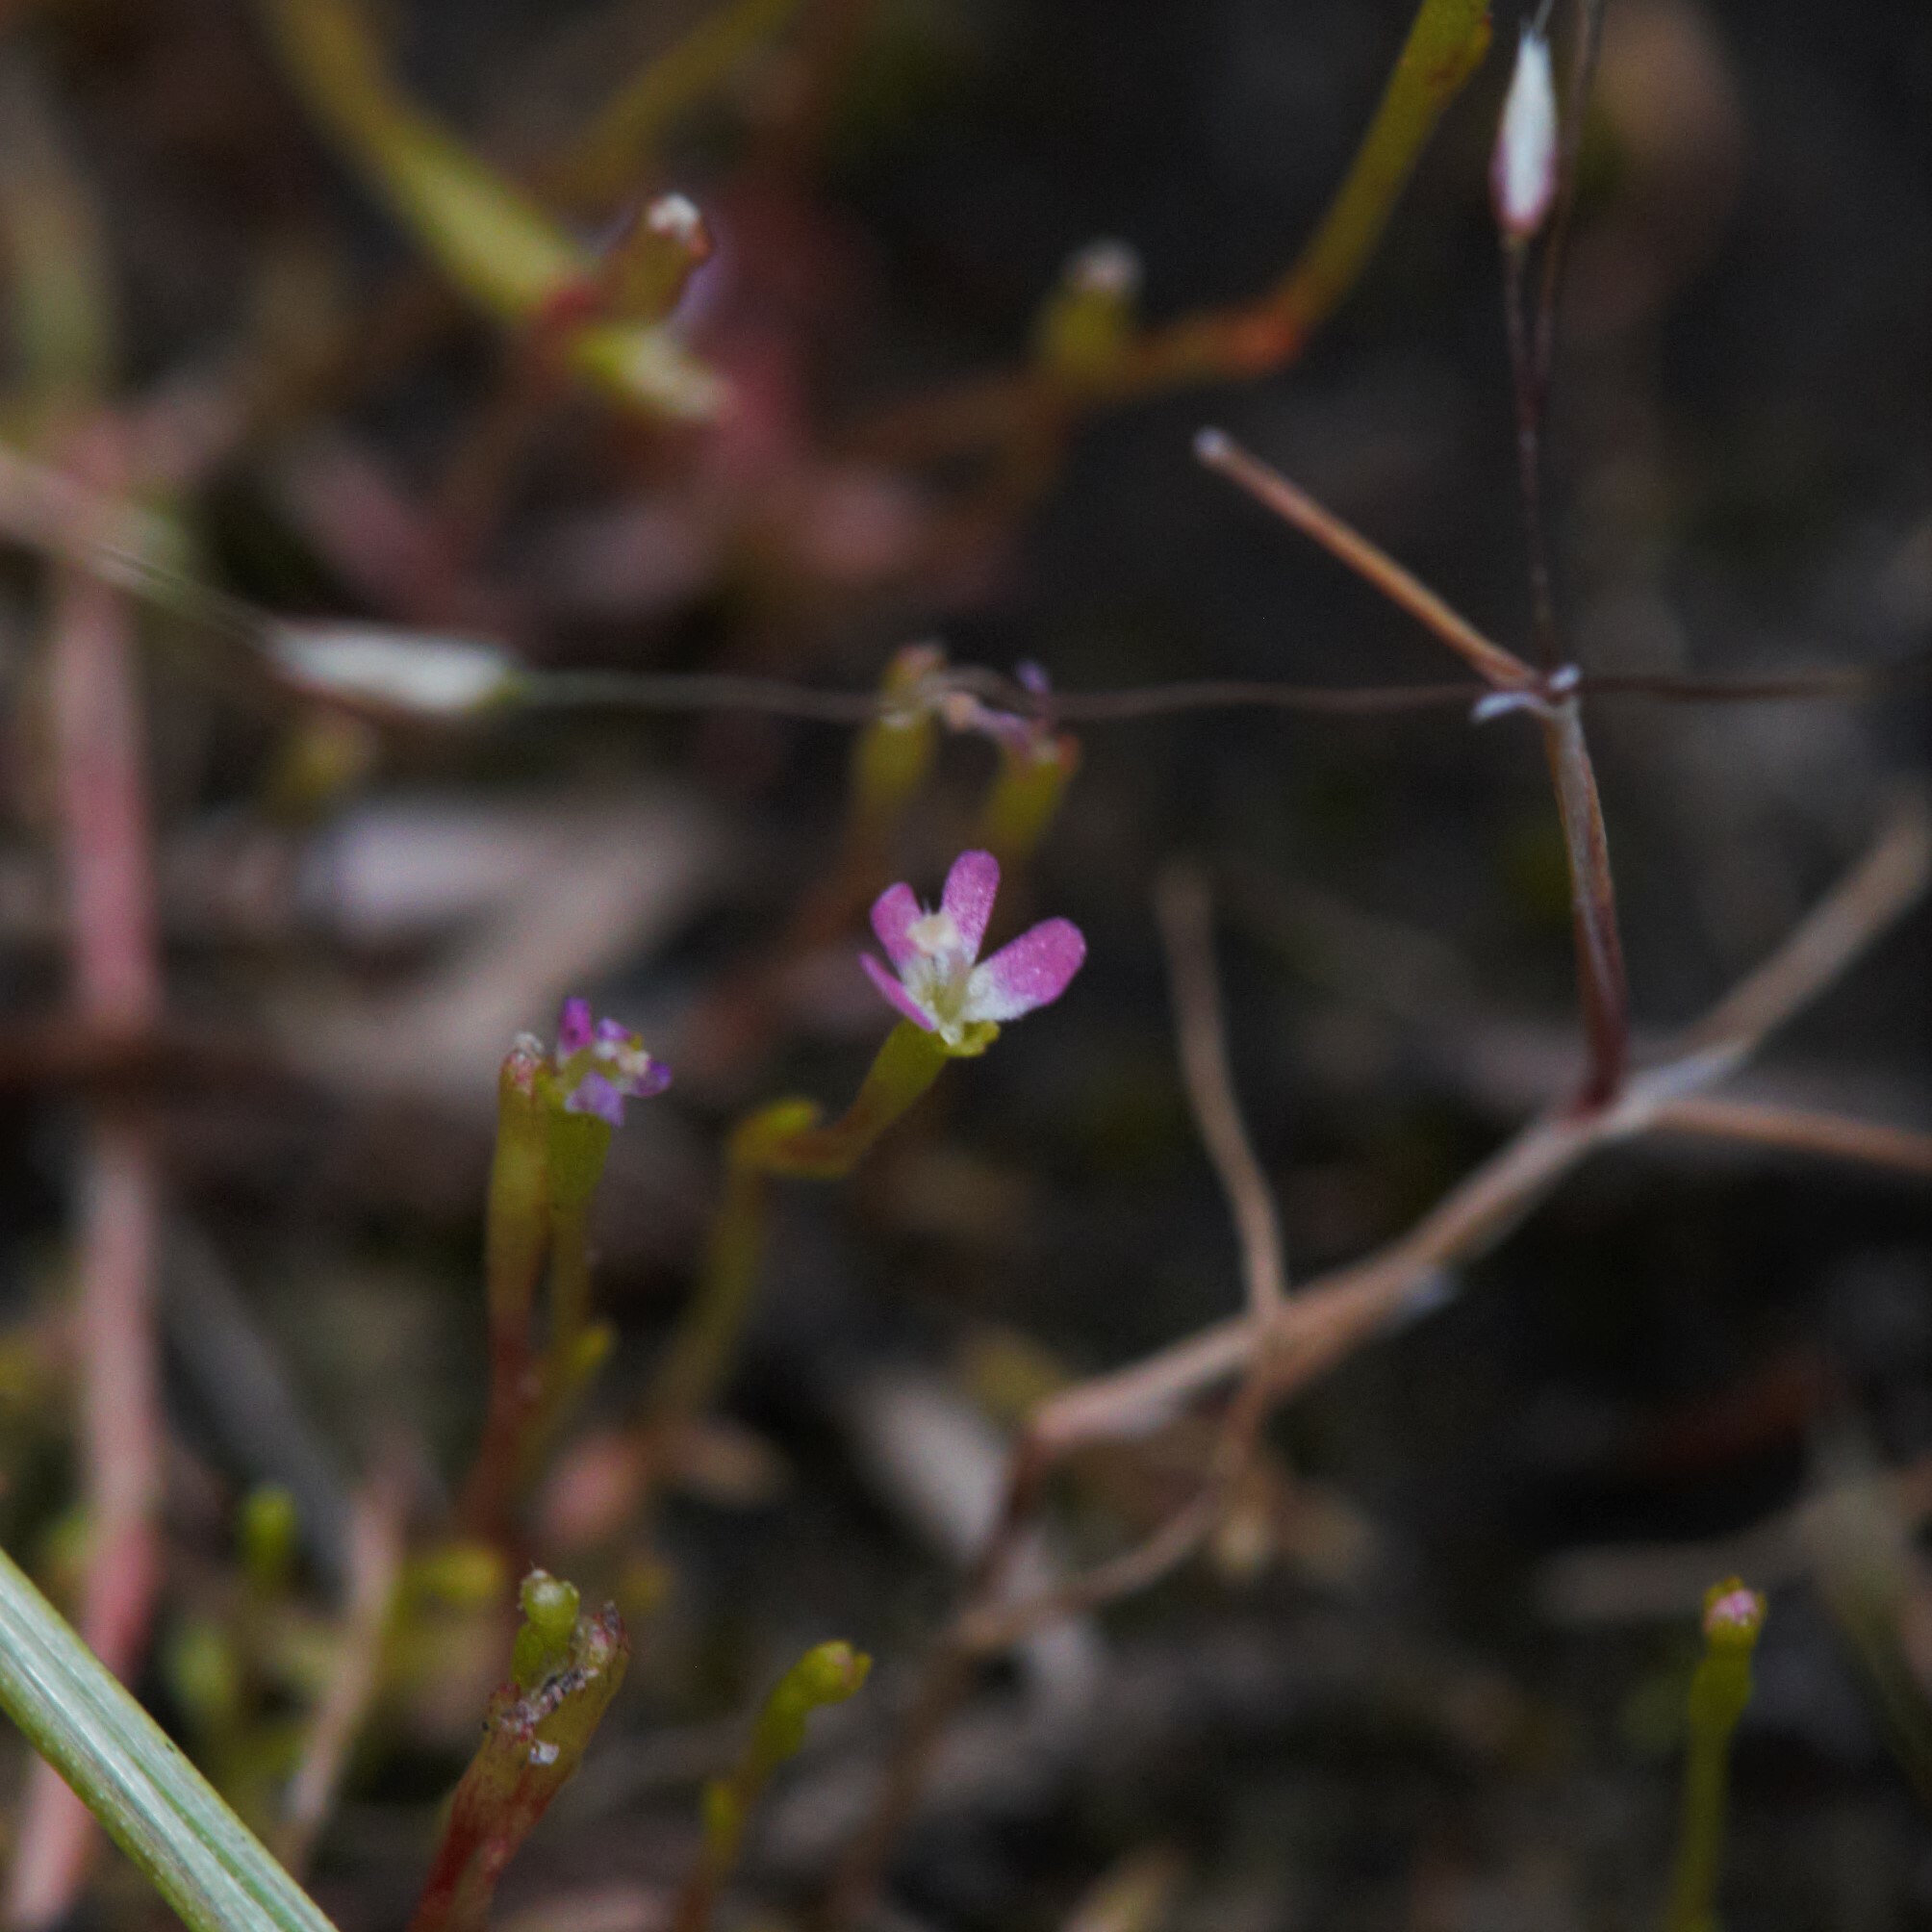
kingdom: Plantae
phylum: Tracheophyta
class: Magnoliopsida
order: Asterales
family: Stylidiaceae
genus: Stylidium
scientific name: Stylidium despectum
